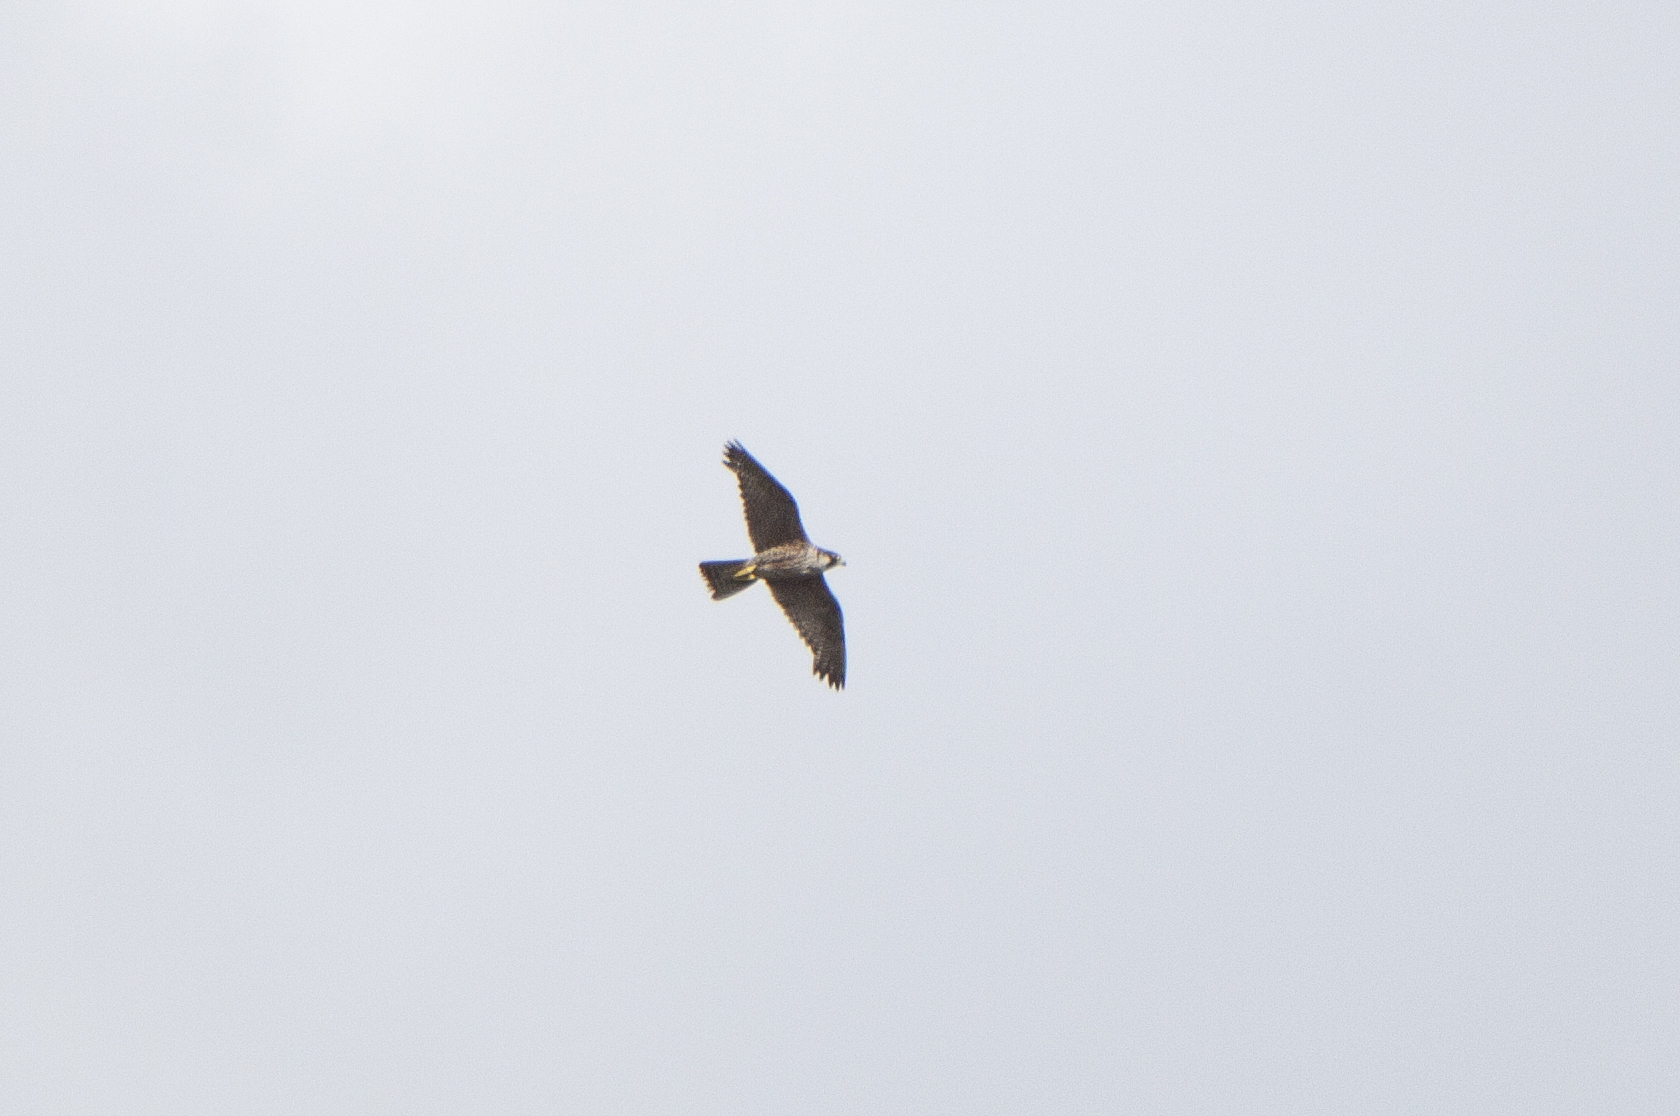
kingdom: Animalia
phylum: Chordata
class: Aves
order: Falconiformes
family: Falconidae
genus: Falco
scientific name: Falco peregrinus
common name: Peregrine falcon
